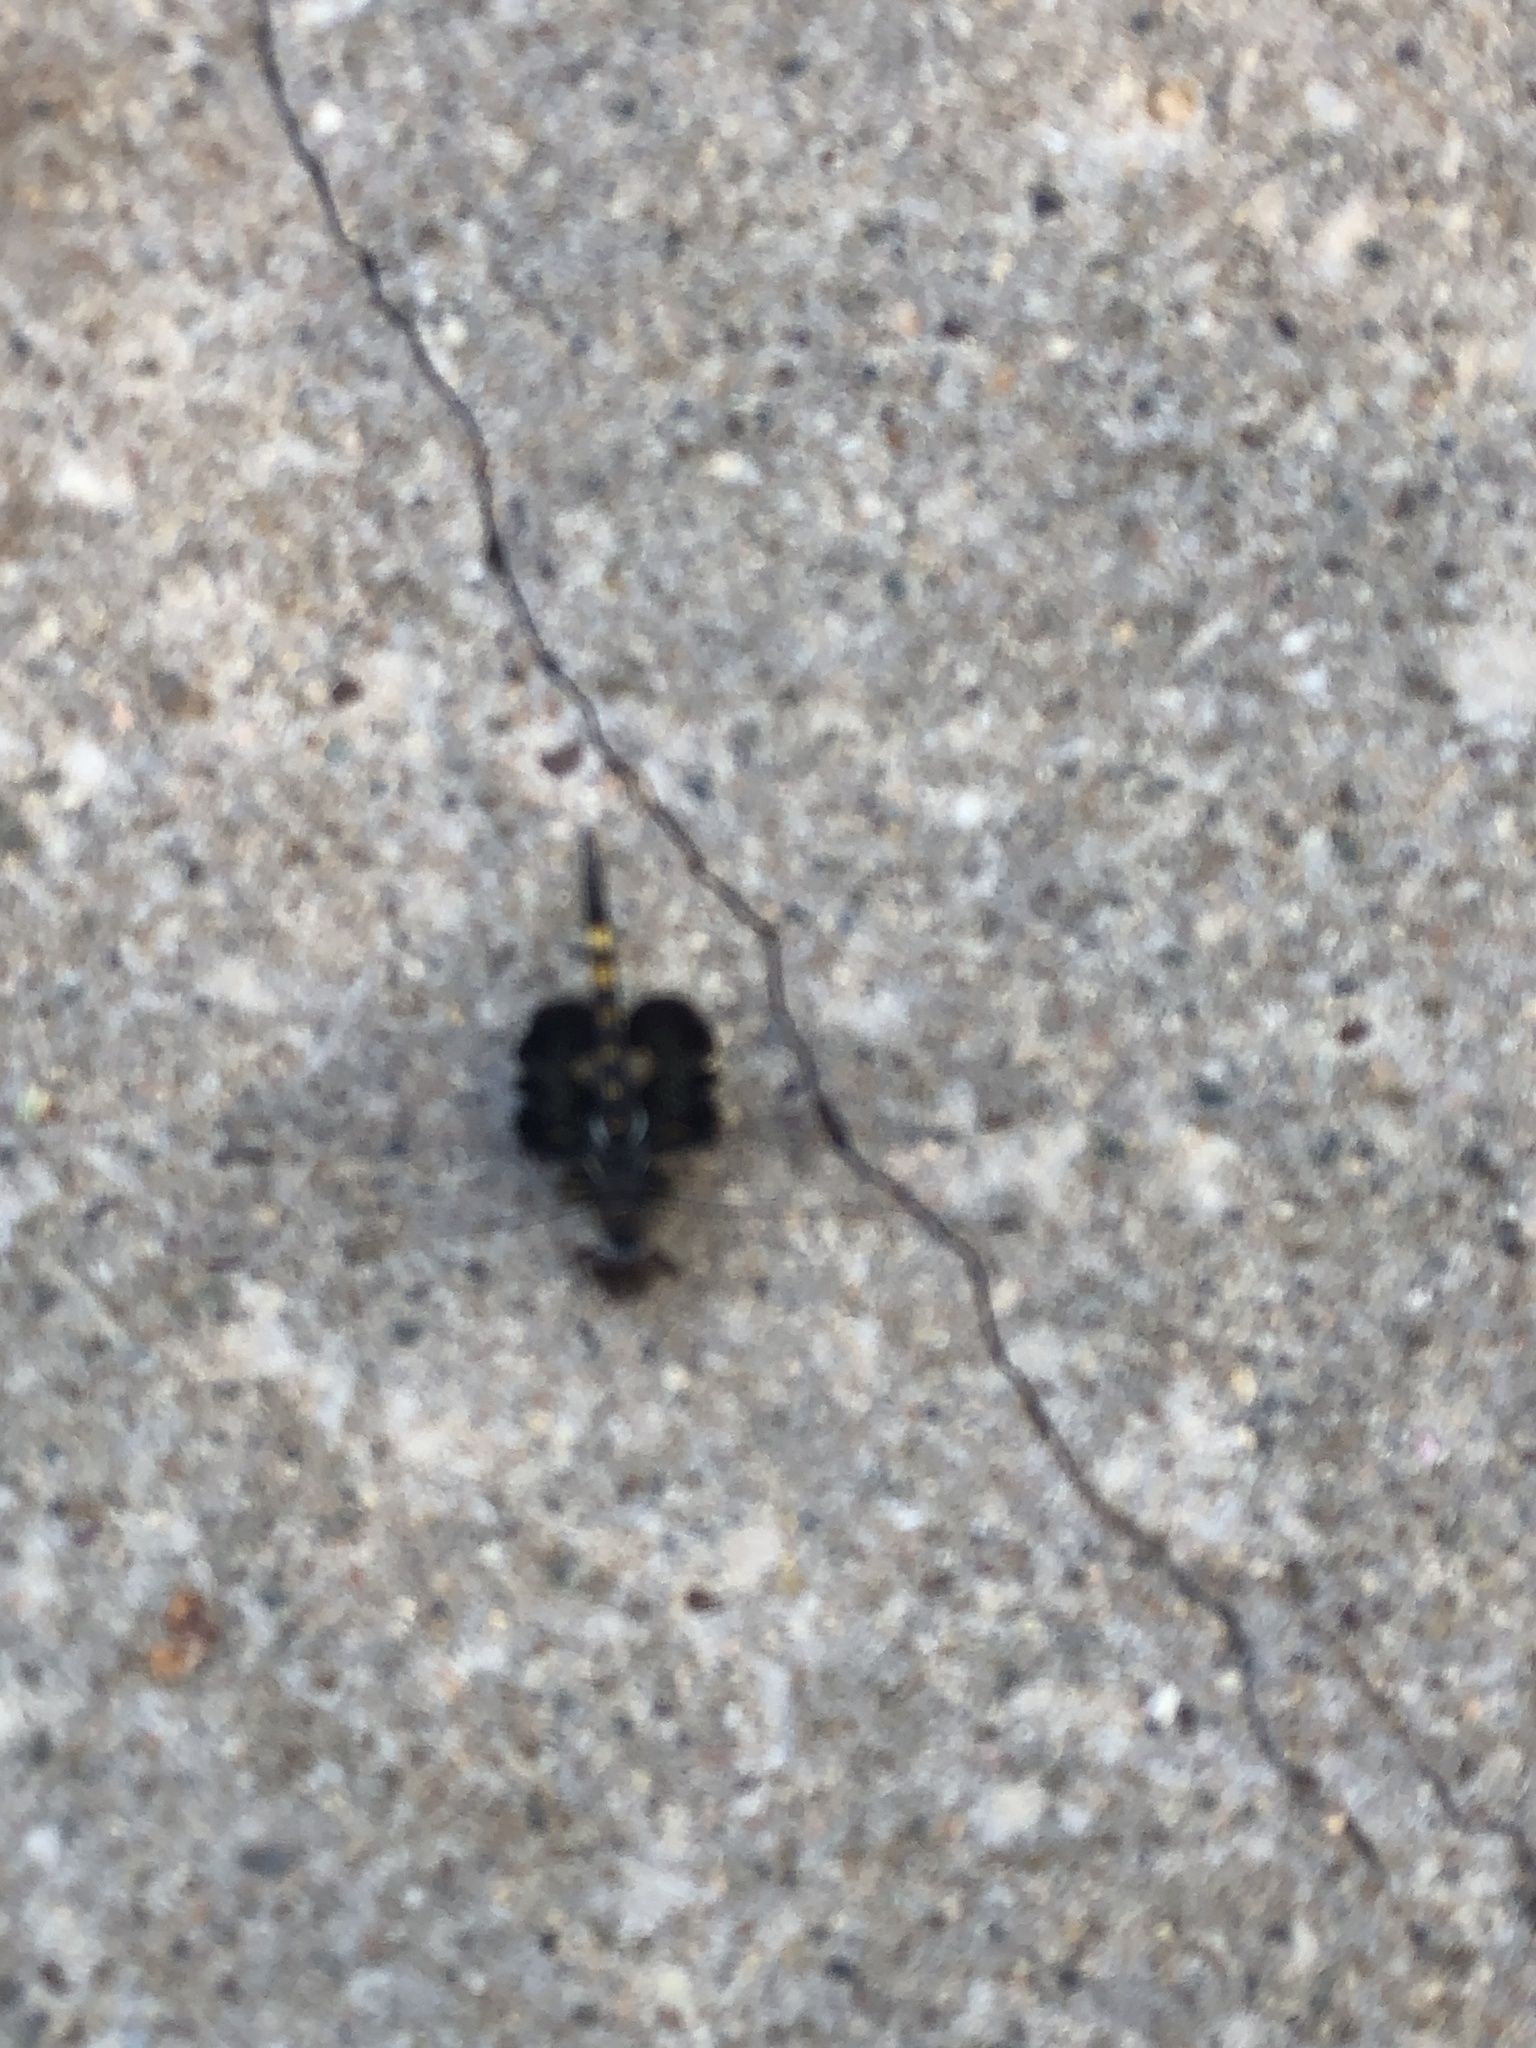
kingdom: Animalia
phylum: Arthropoda
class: Insecta
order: Odonata
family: Libellulidae
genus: Tramea
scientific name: Tramea lacerata
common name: Black saddlebags
